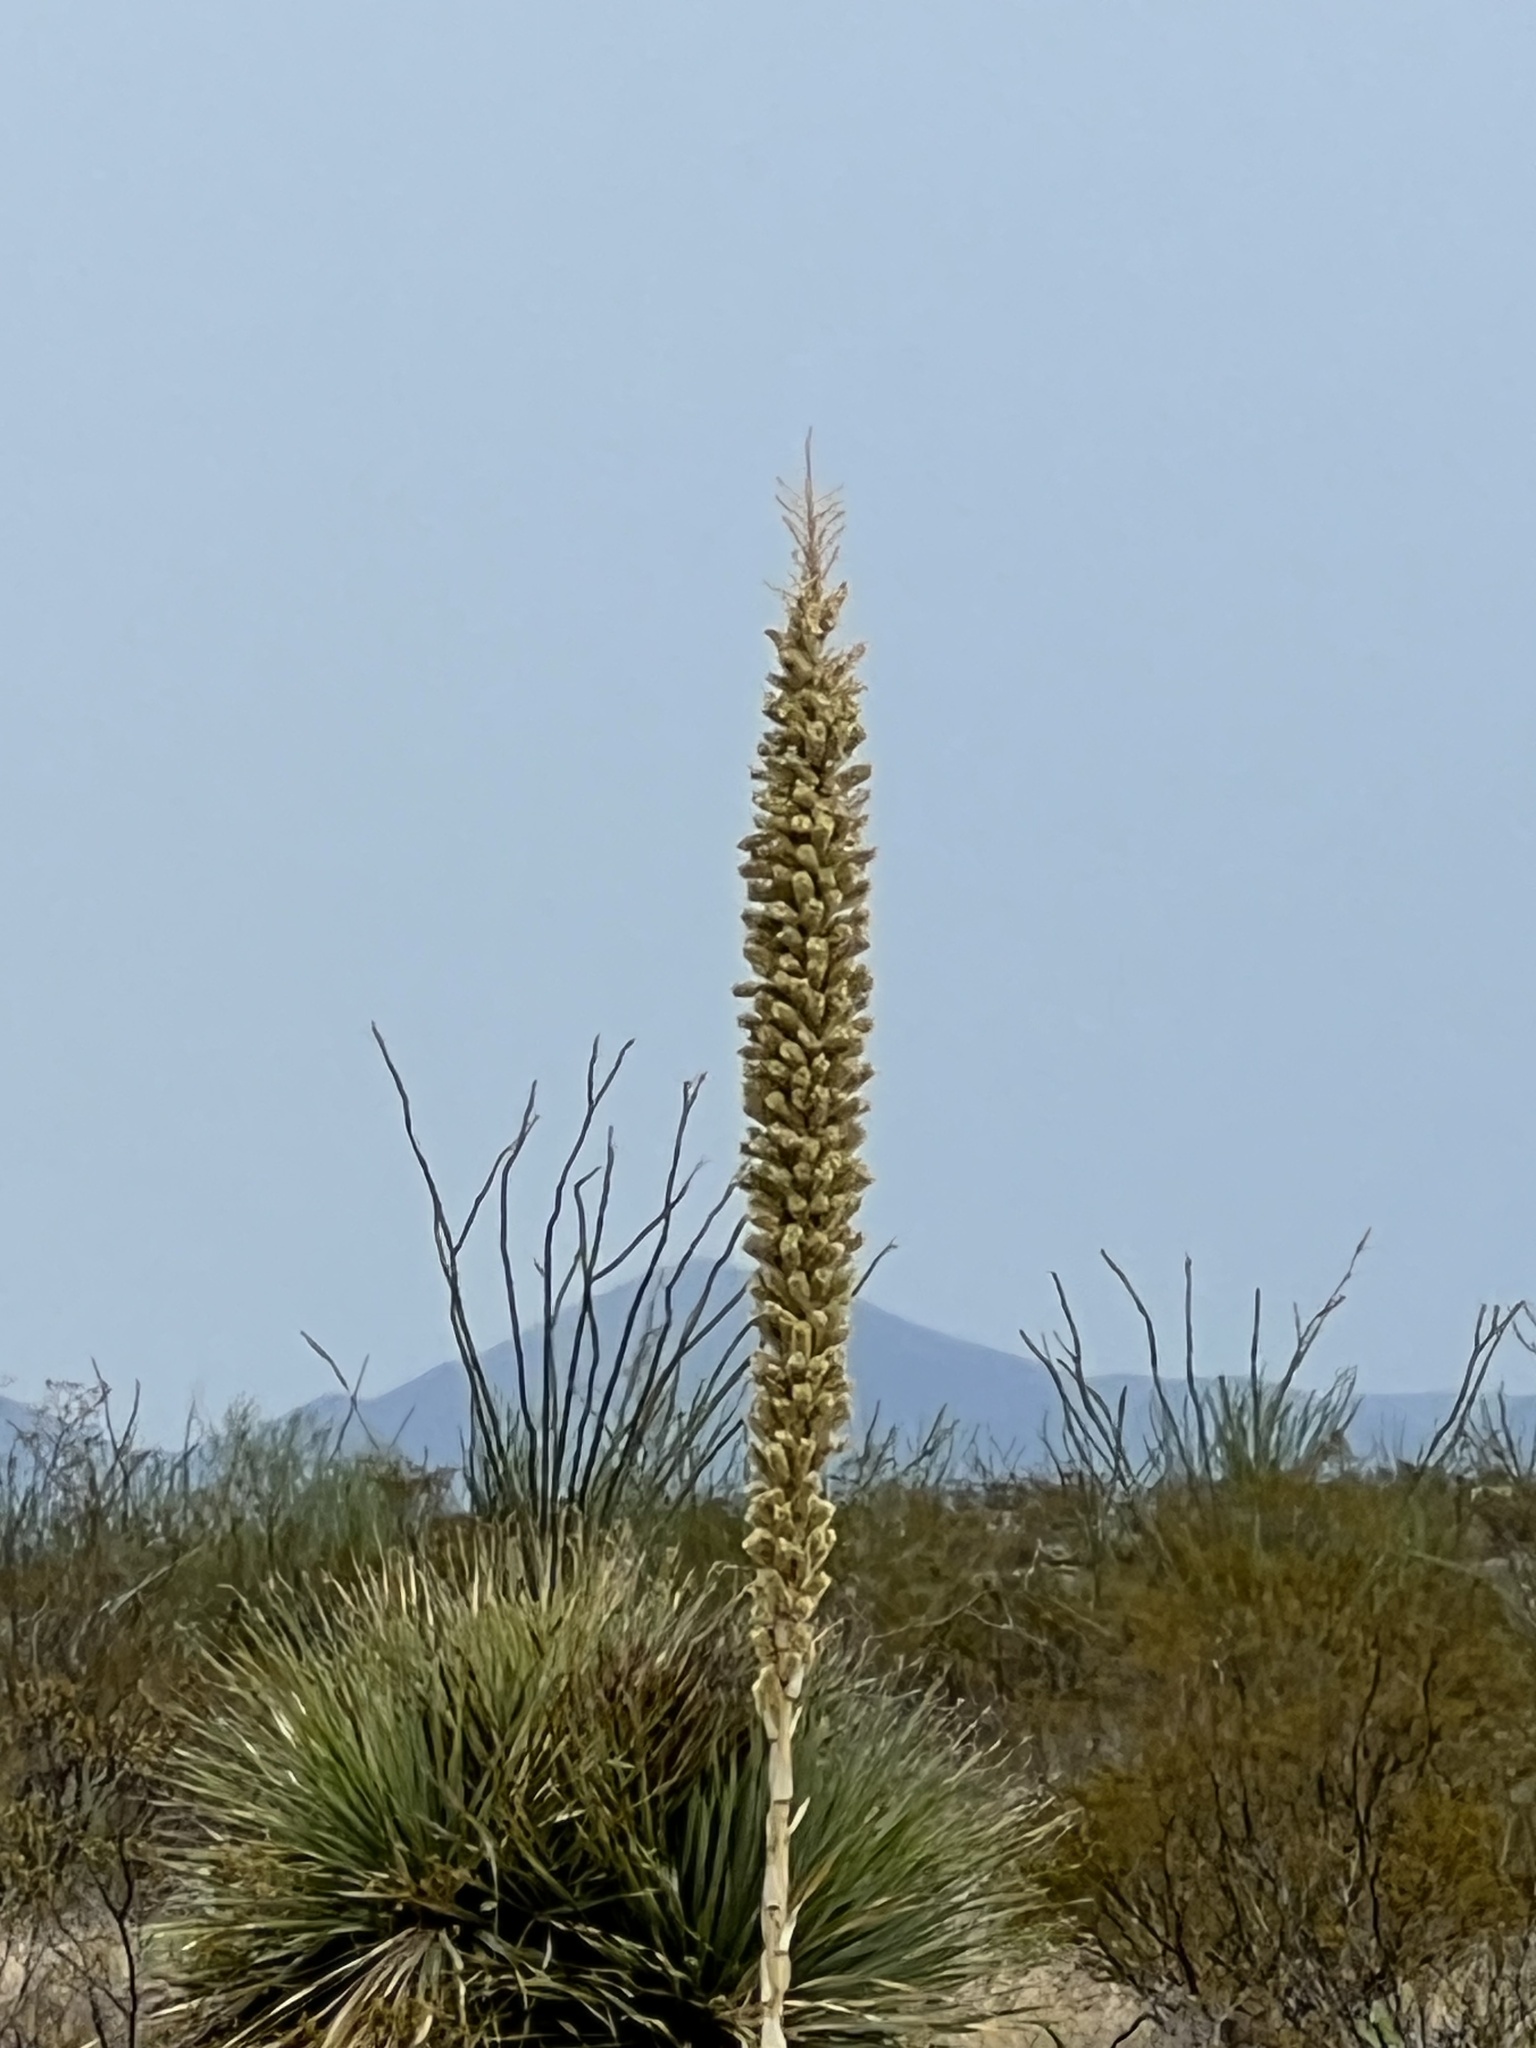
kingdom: Plantae
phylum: Tracheophyta
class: Liliopsida
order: Asparagales
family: Asparagaceae
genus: Dasylirion
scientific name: Dasylirion wheeleri
